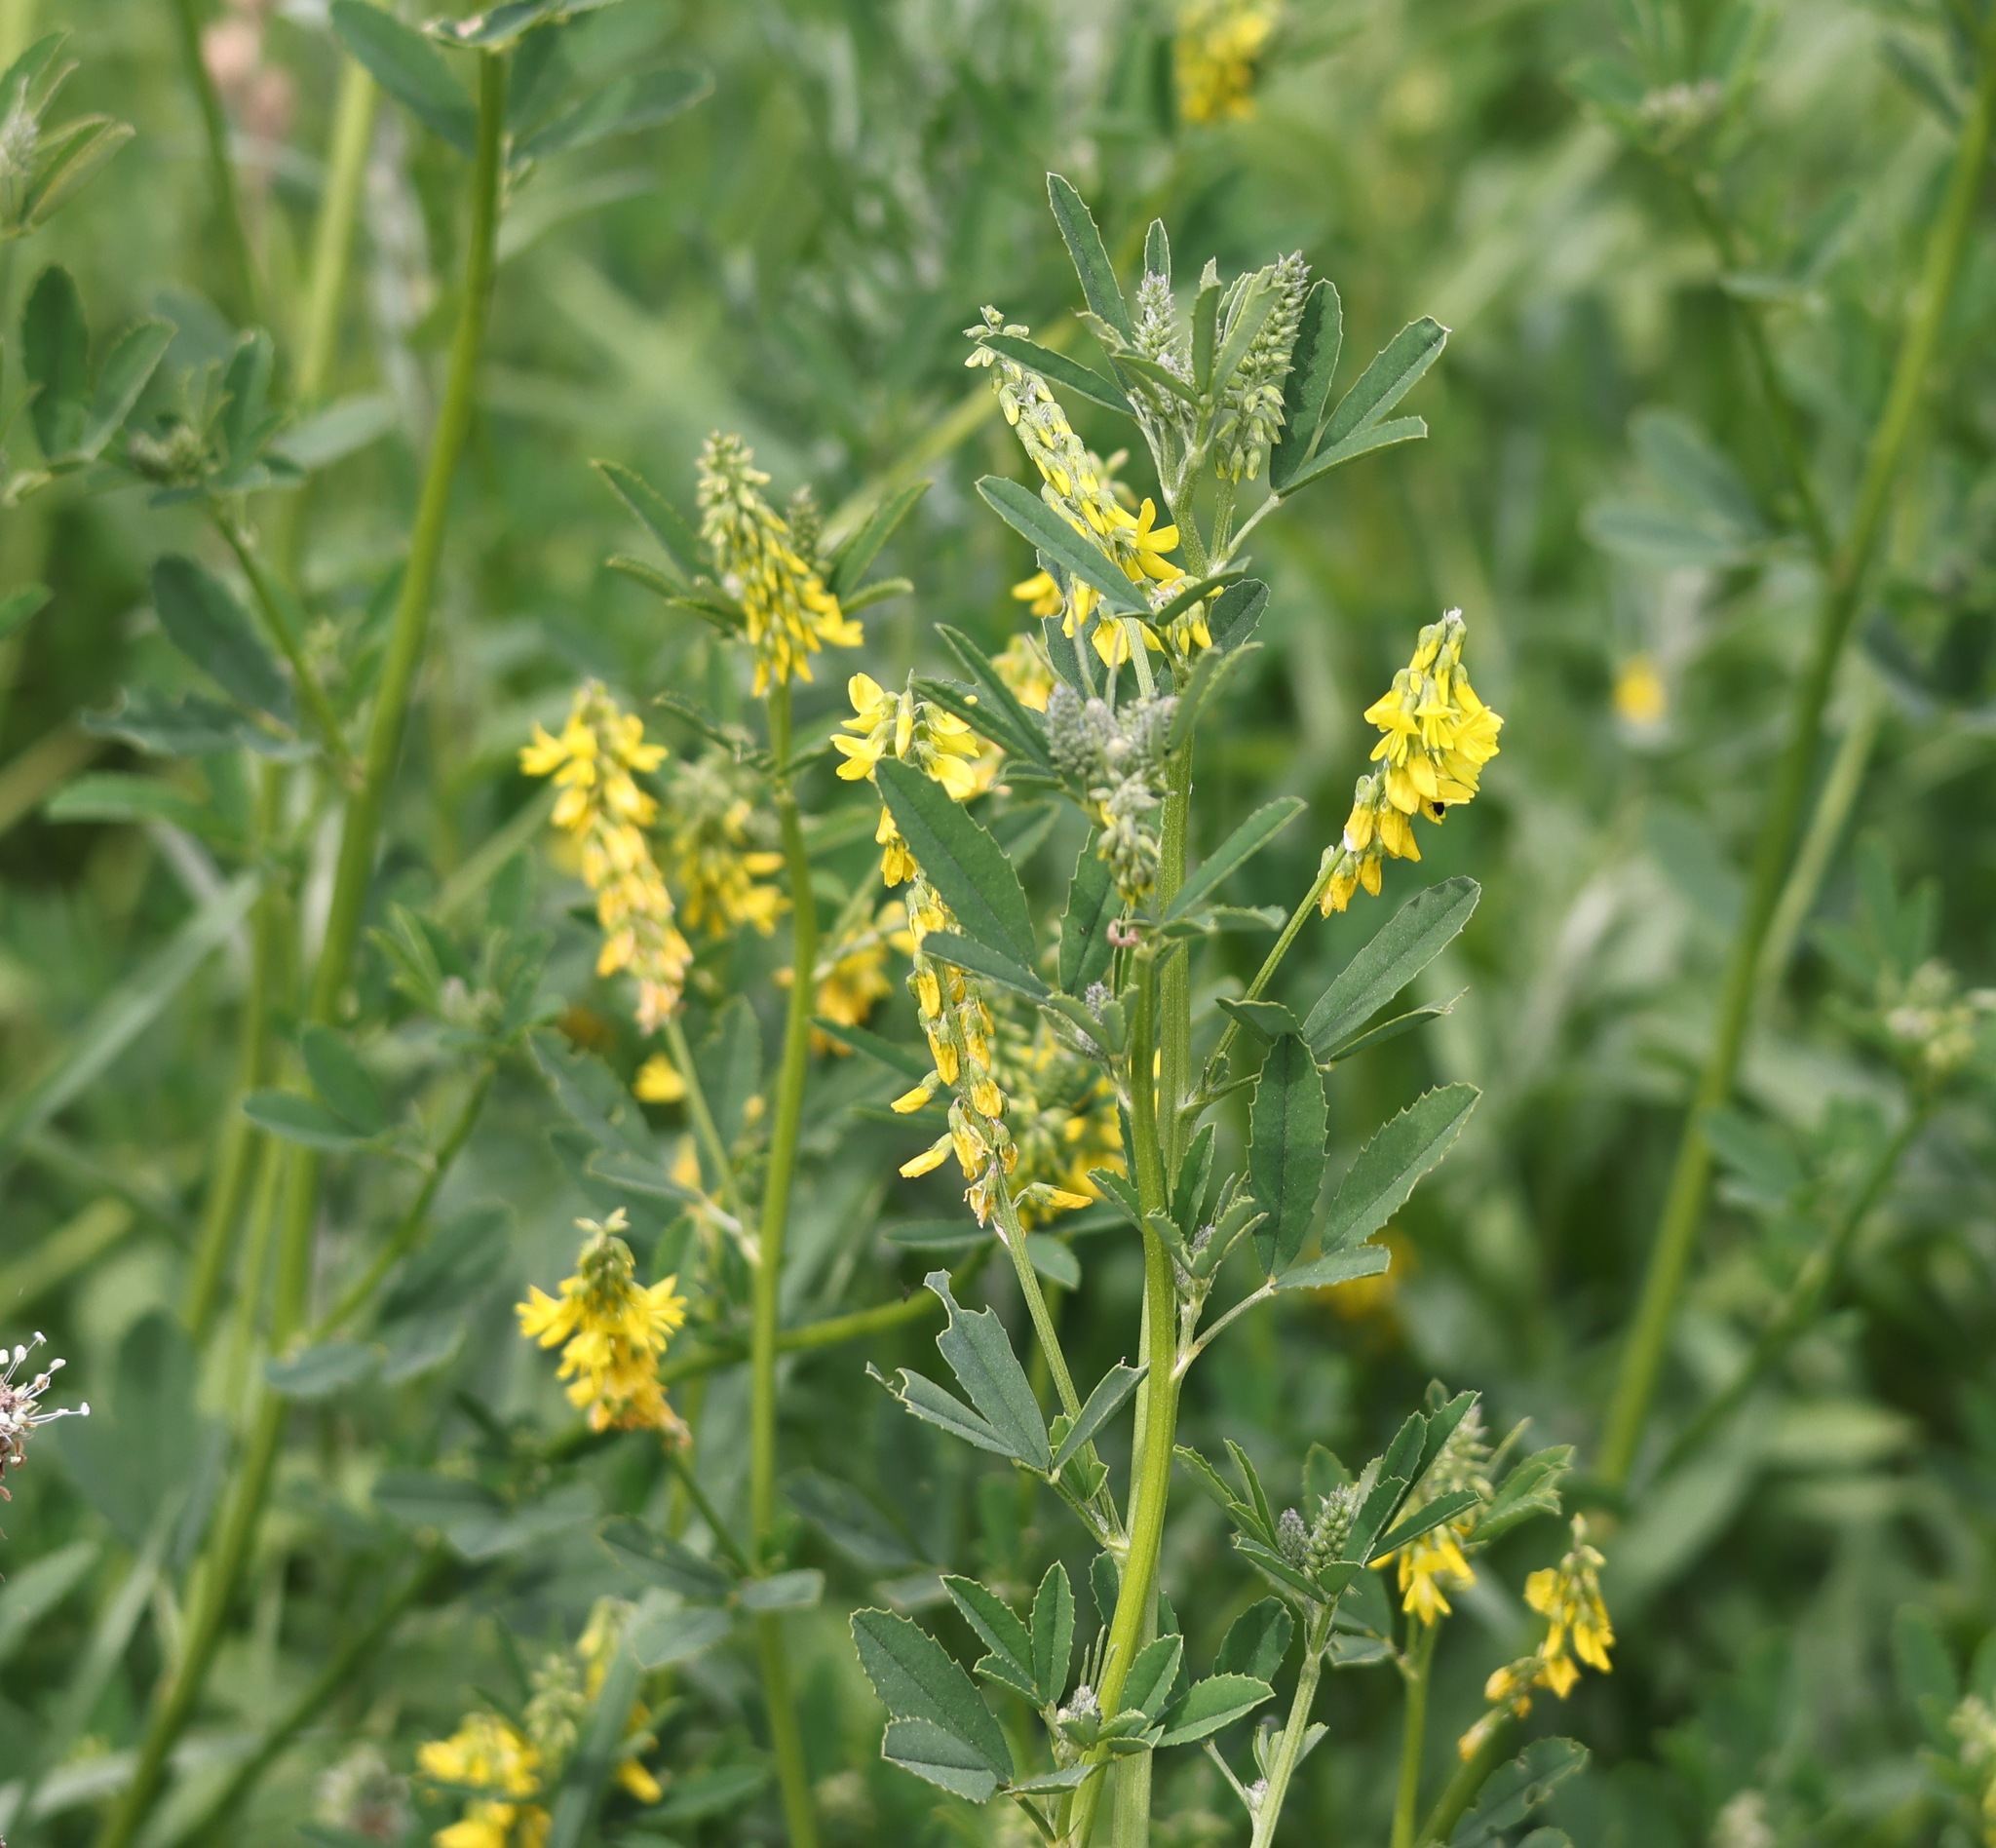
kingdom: Plantae
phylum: Tracheophyta
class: Magnoliopsida
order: Fabales
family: Fabaceae
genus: Melilotus
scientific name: Melilotus officinalis
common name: Sweetclover
